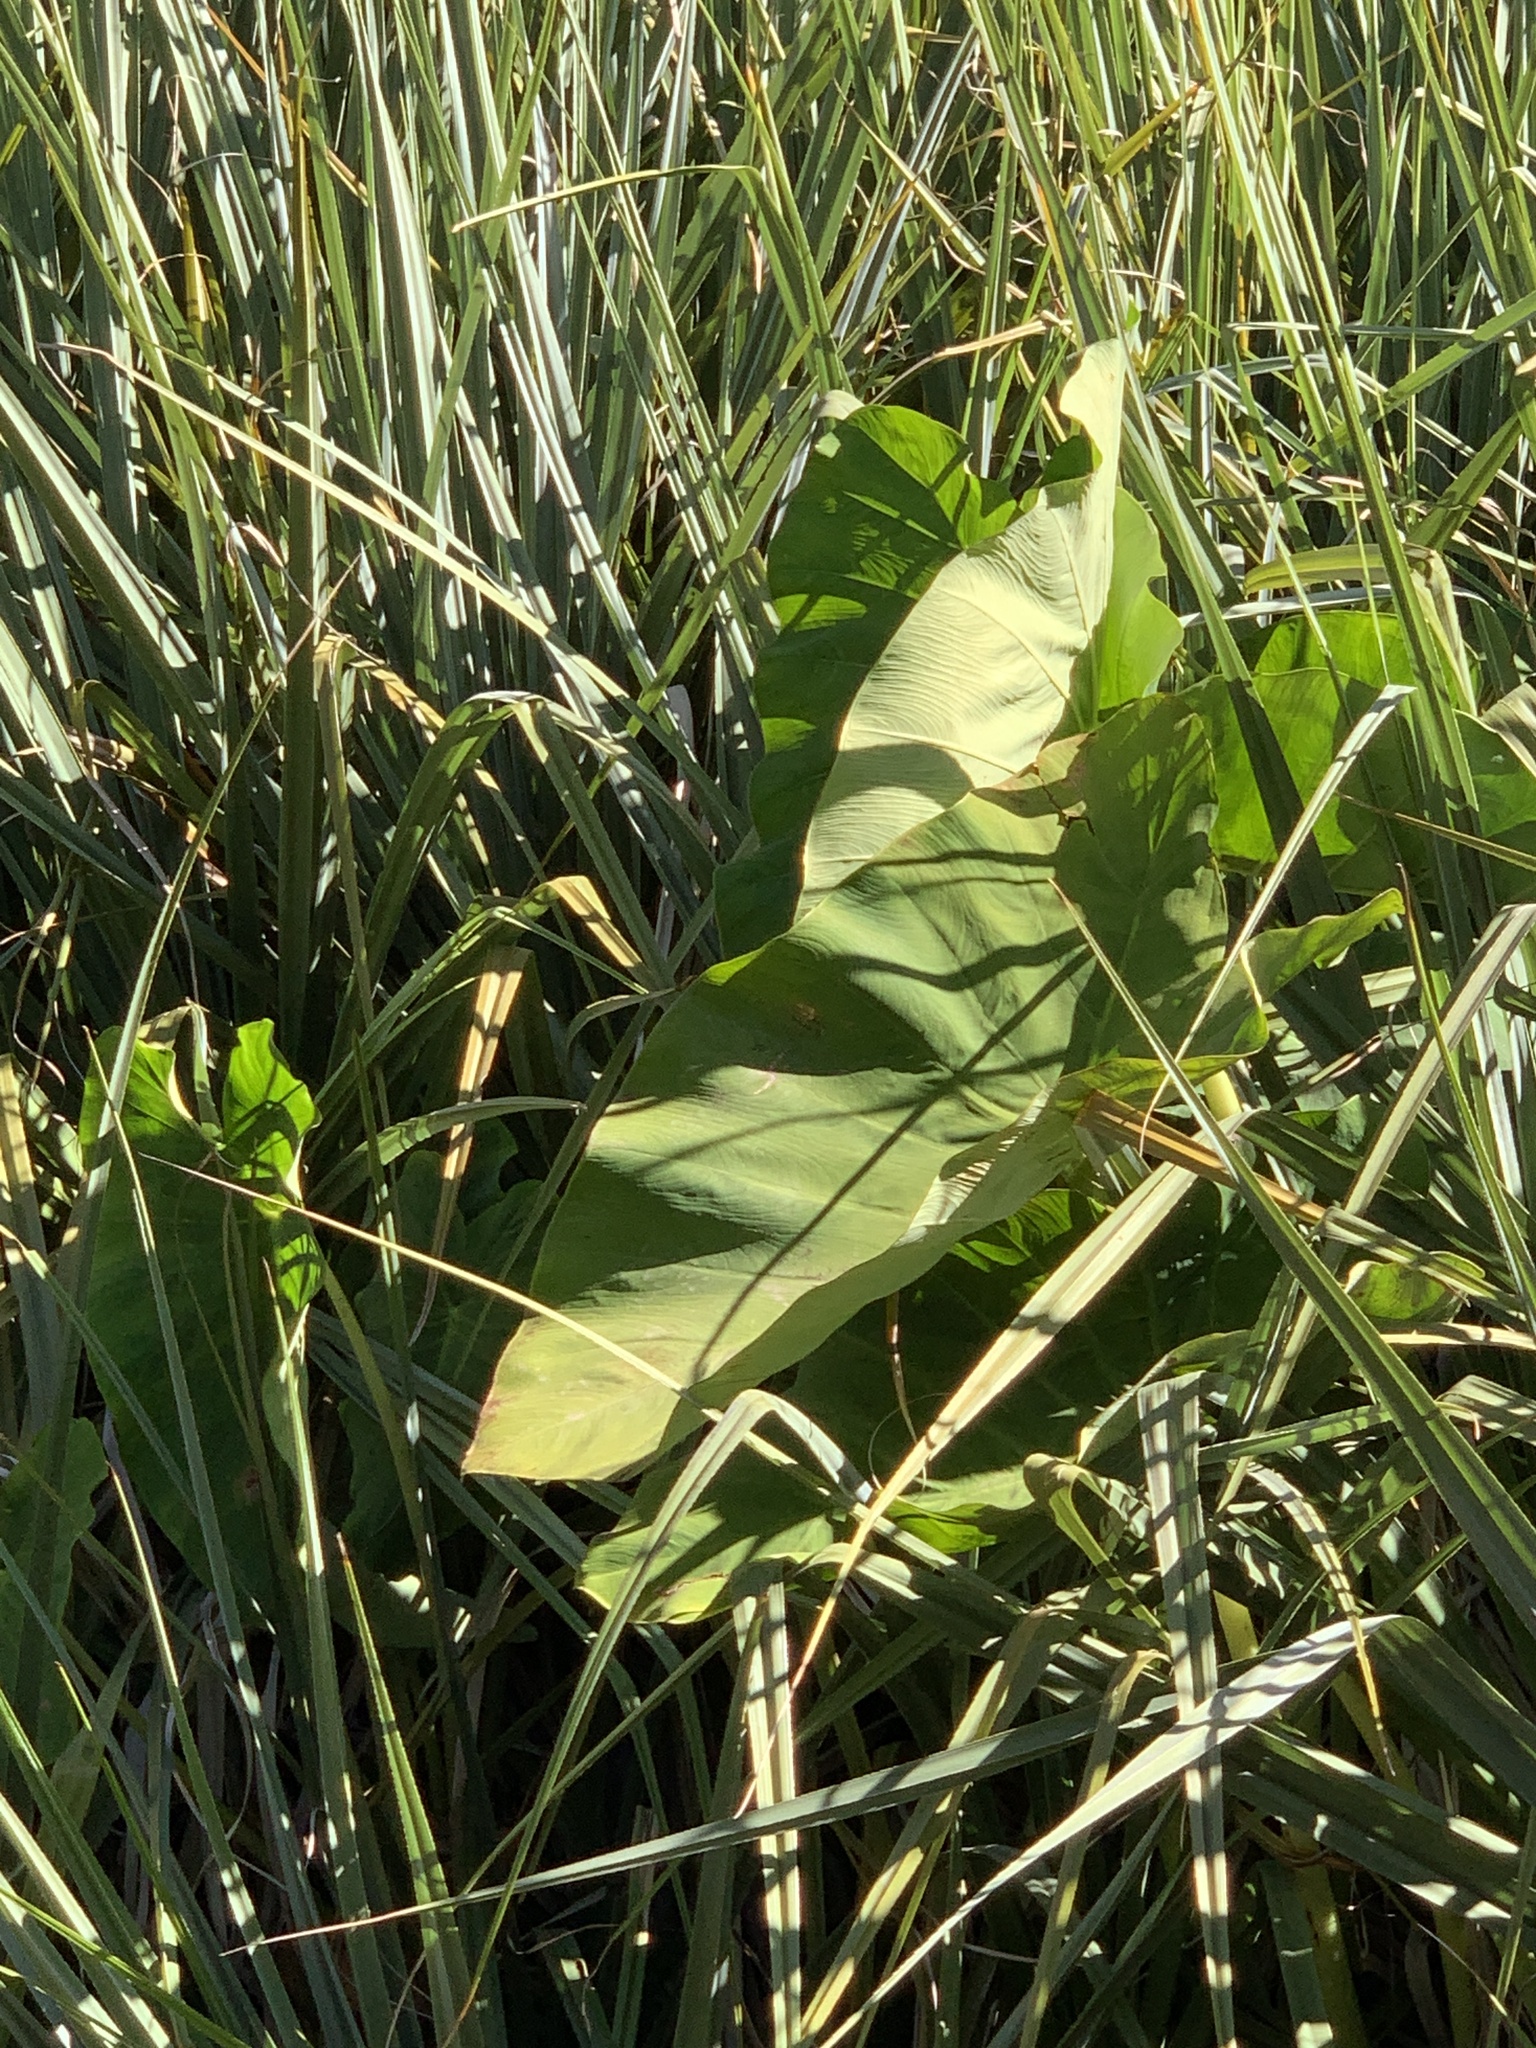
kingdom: Plantae
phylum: Tracheophyta
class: Liliopsida
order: Alismatales
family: Araceae
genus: Colocasia
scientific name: Colocasia esculenta
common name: Taro
